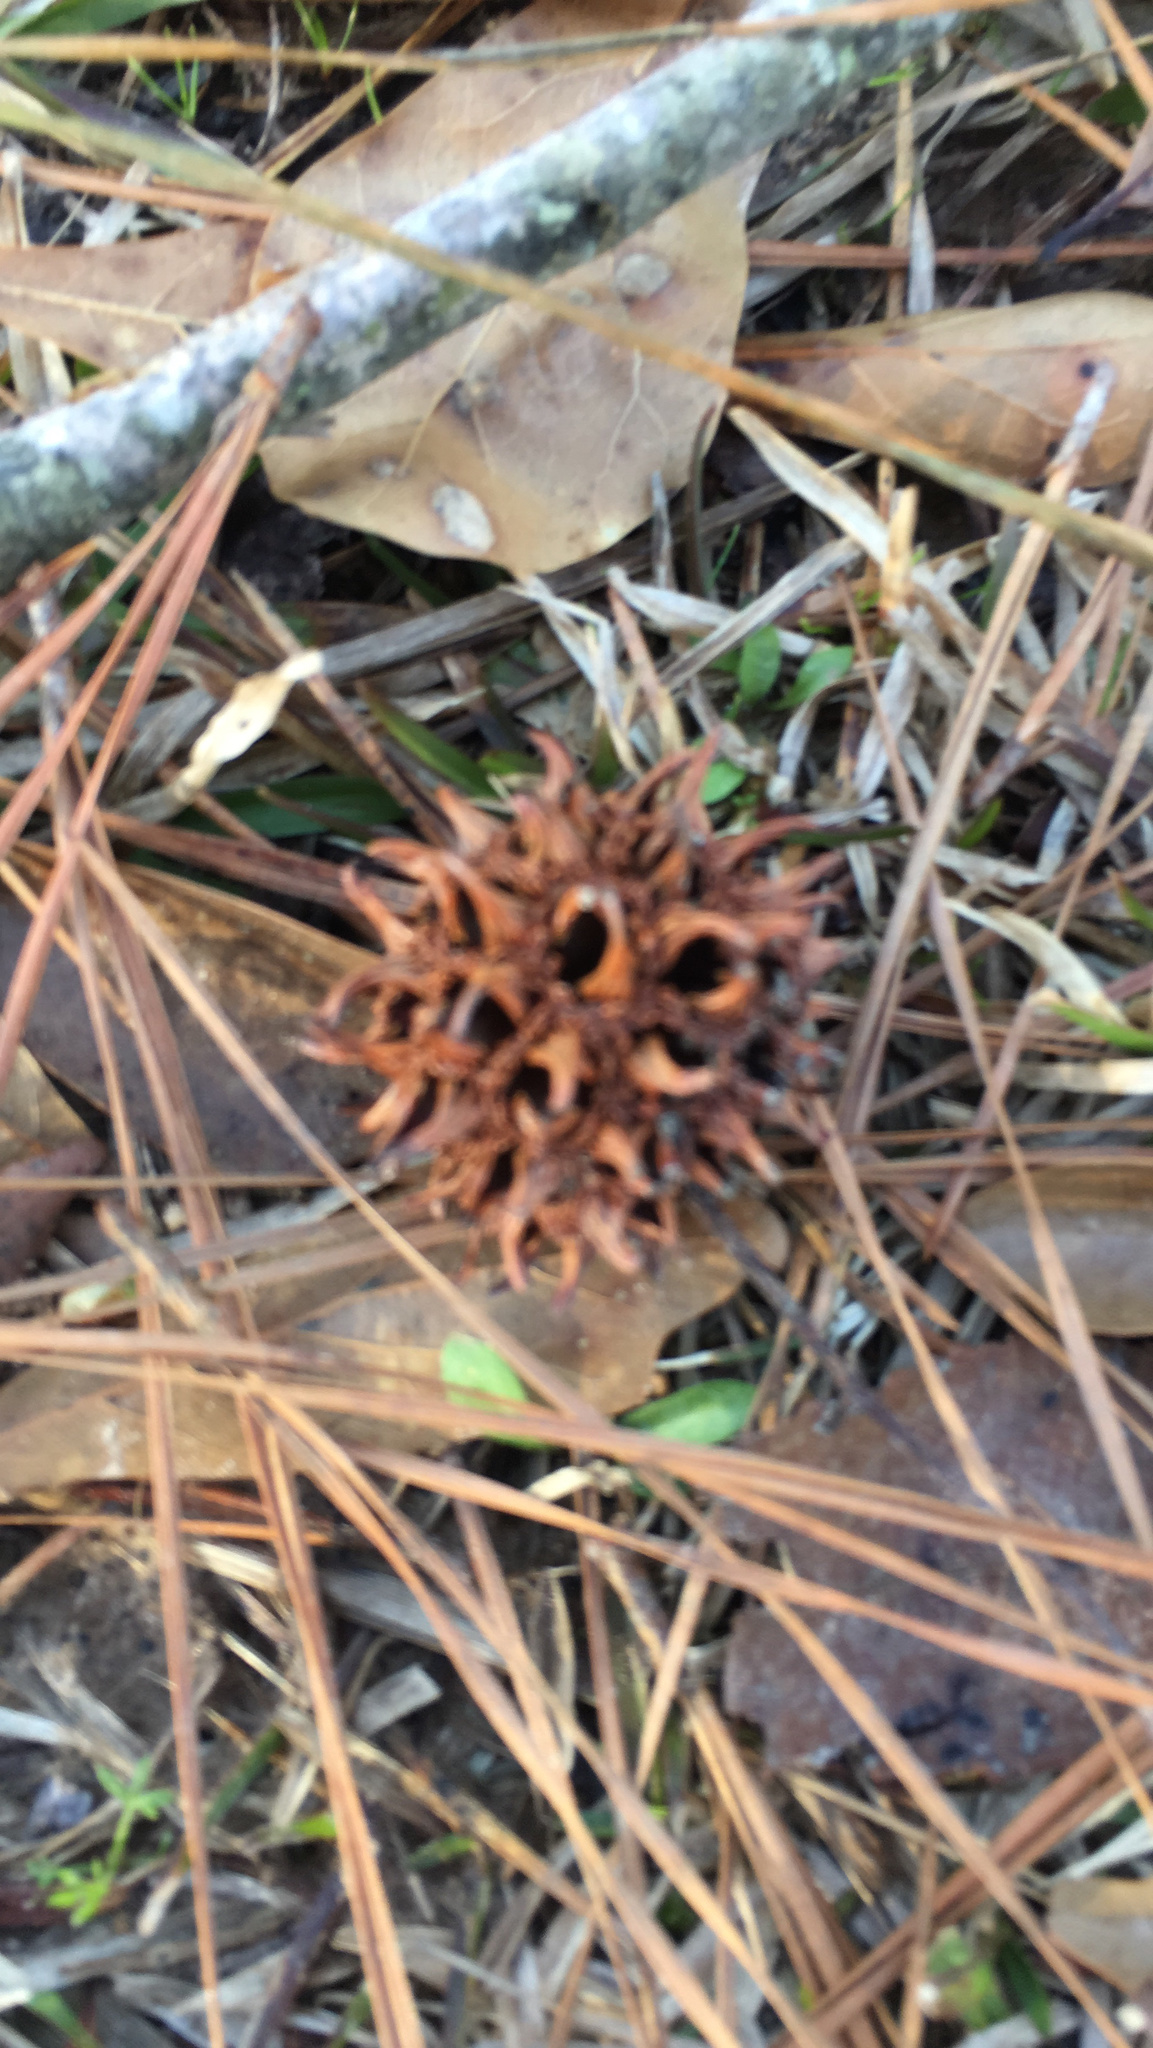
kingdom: Plantae
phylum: Tracheophyta
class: Magnoliopsida
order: Saxifragales
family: Altingiaceae
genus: Liquidambar
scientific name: Liquidambar styraciflua
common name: Sweet gum
